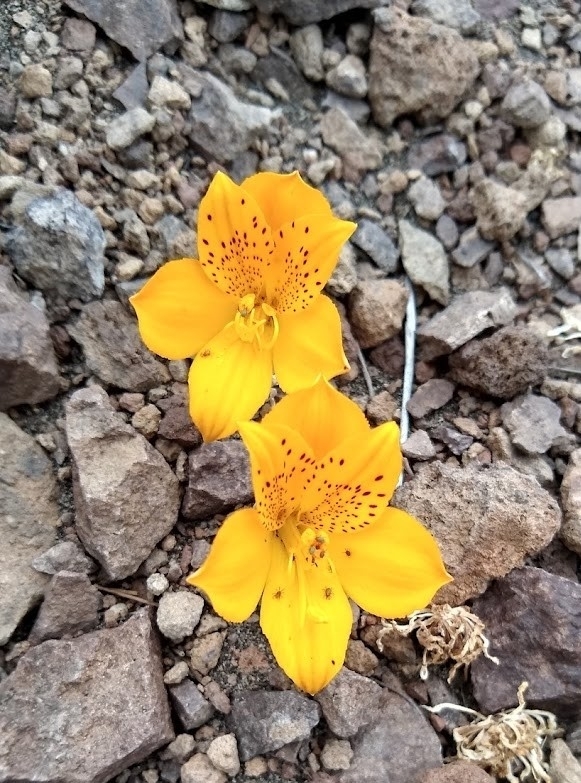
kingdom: Plantae
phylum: Tracheophyta
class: Liliopsida
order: Liliales
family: Alstroemeriaceae
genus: Alstroemeria
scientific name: Alstroemeria esteparica
